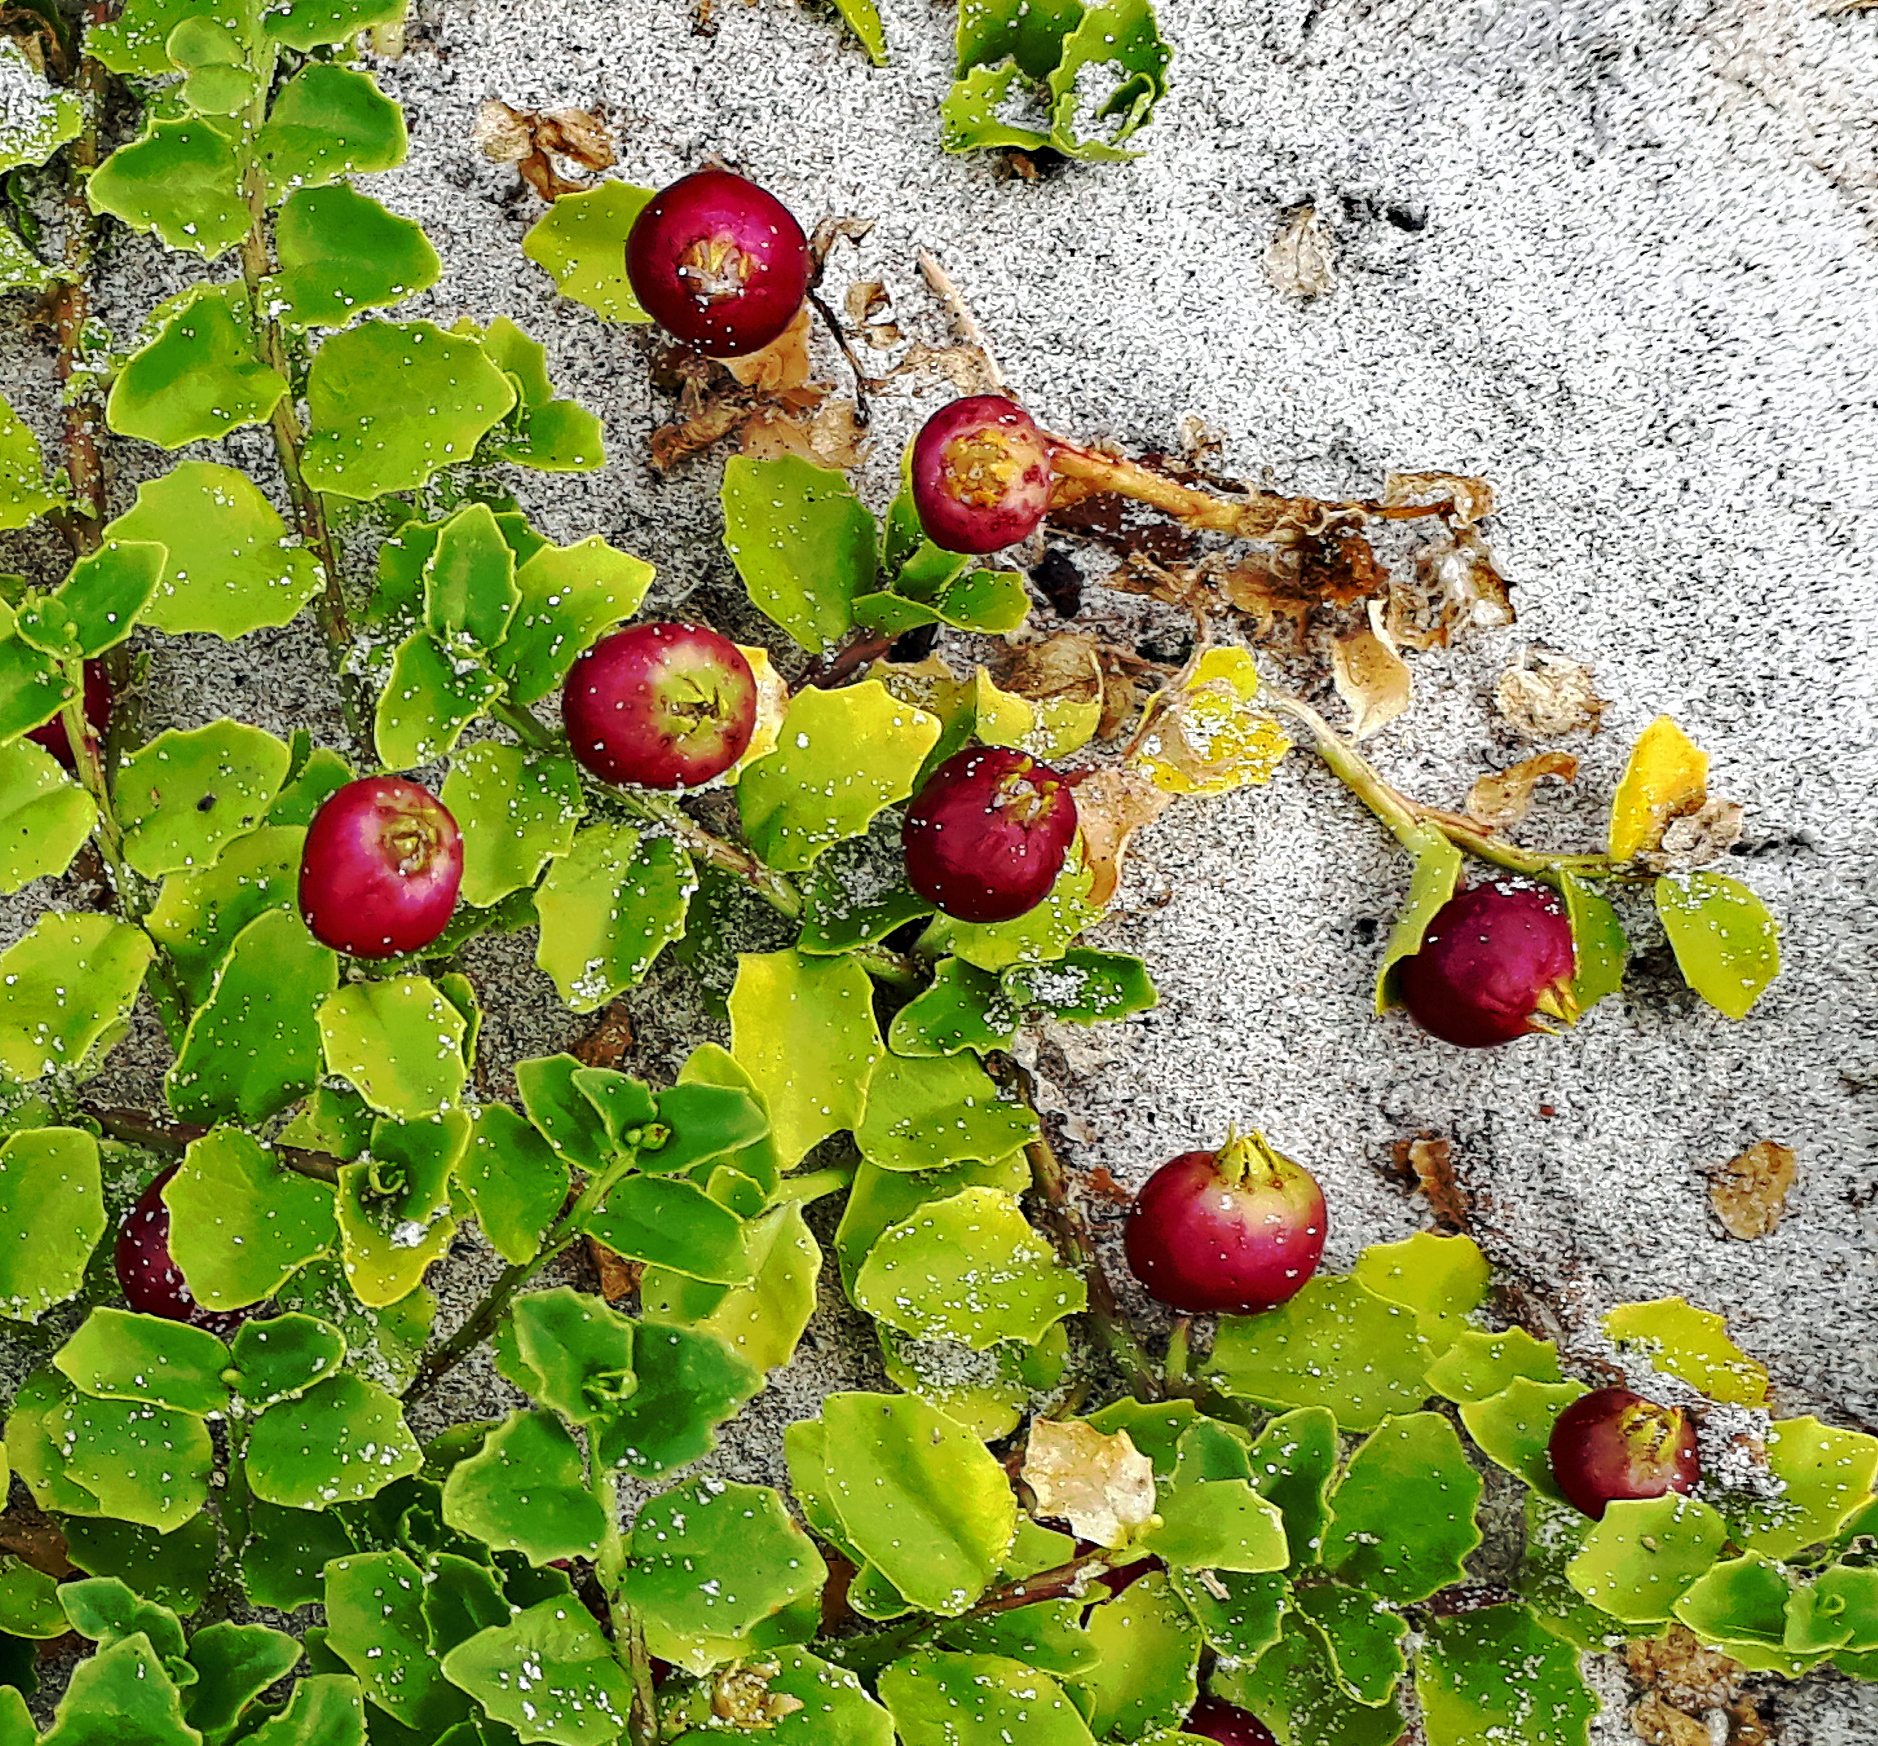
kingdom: Plantae
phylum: Tracheophyta
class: Magnoliopsida
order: Asterales
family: Campanulaceae
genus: Lobelia
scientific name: Lobelia arenaria
